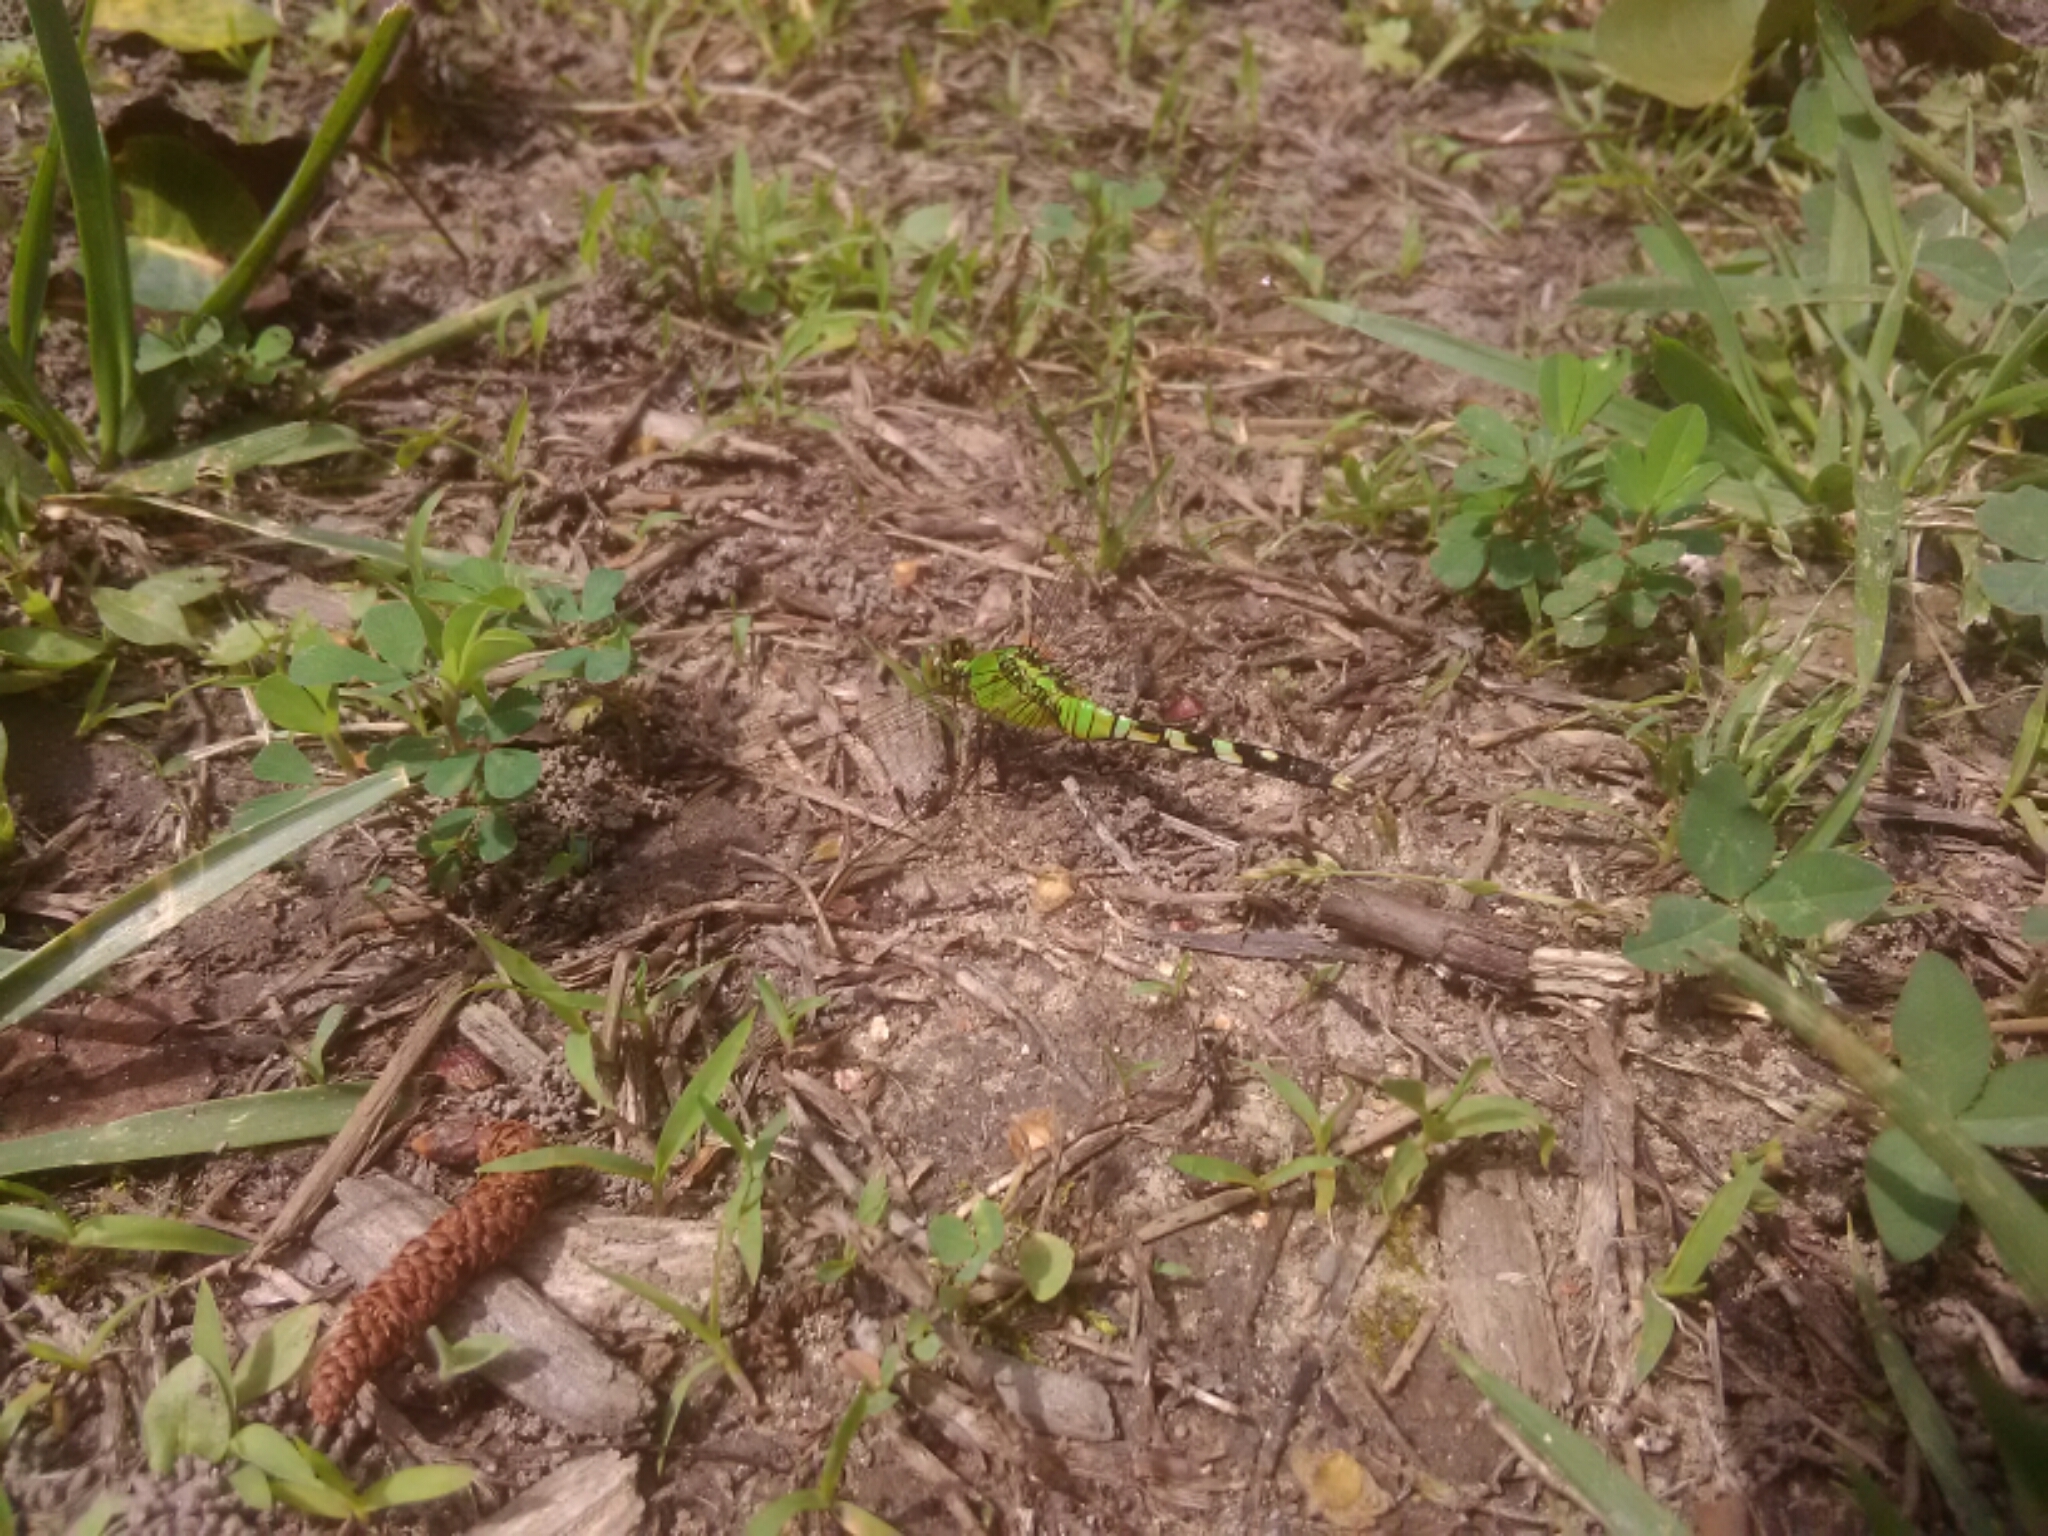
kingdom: Animalia
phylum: Arthropoda
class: Insecta
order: Odonata
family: Libellulidae
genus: Erythemis
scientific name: Erythemis simplicicollis
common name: Eastern pondhawk
